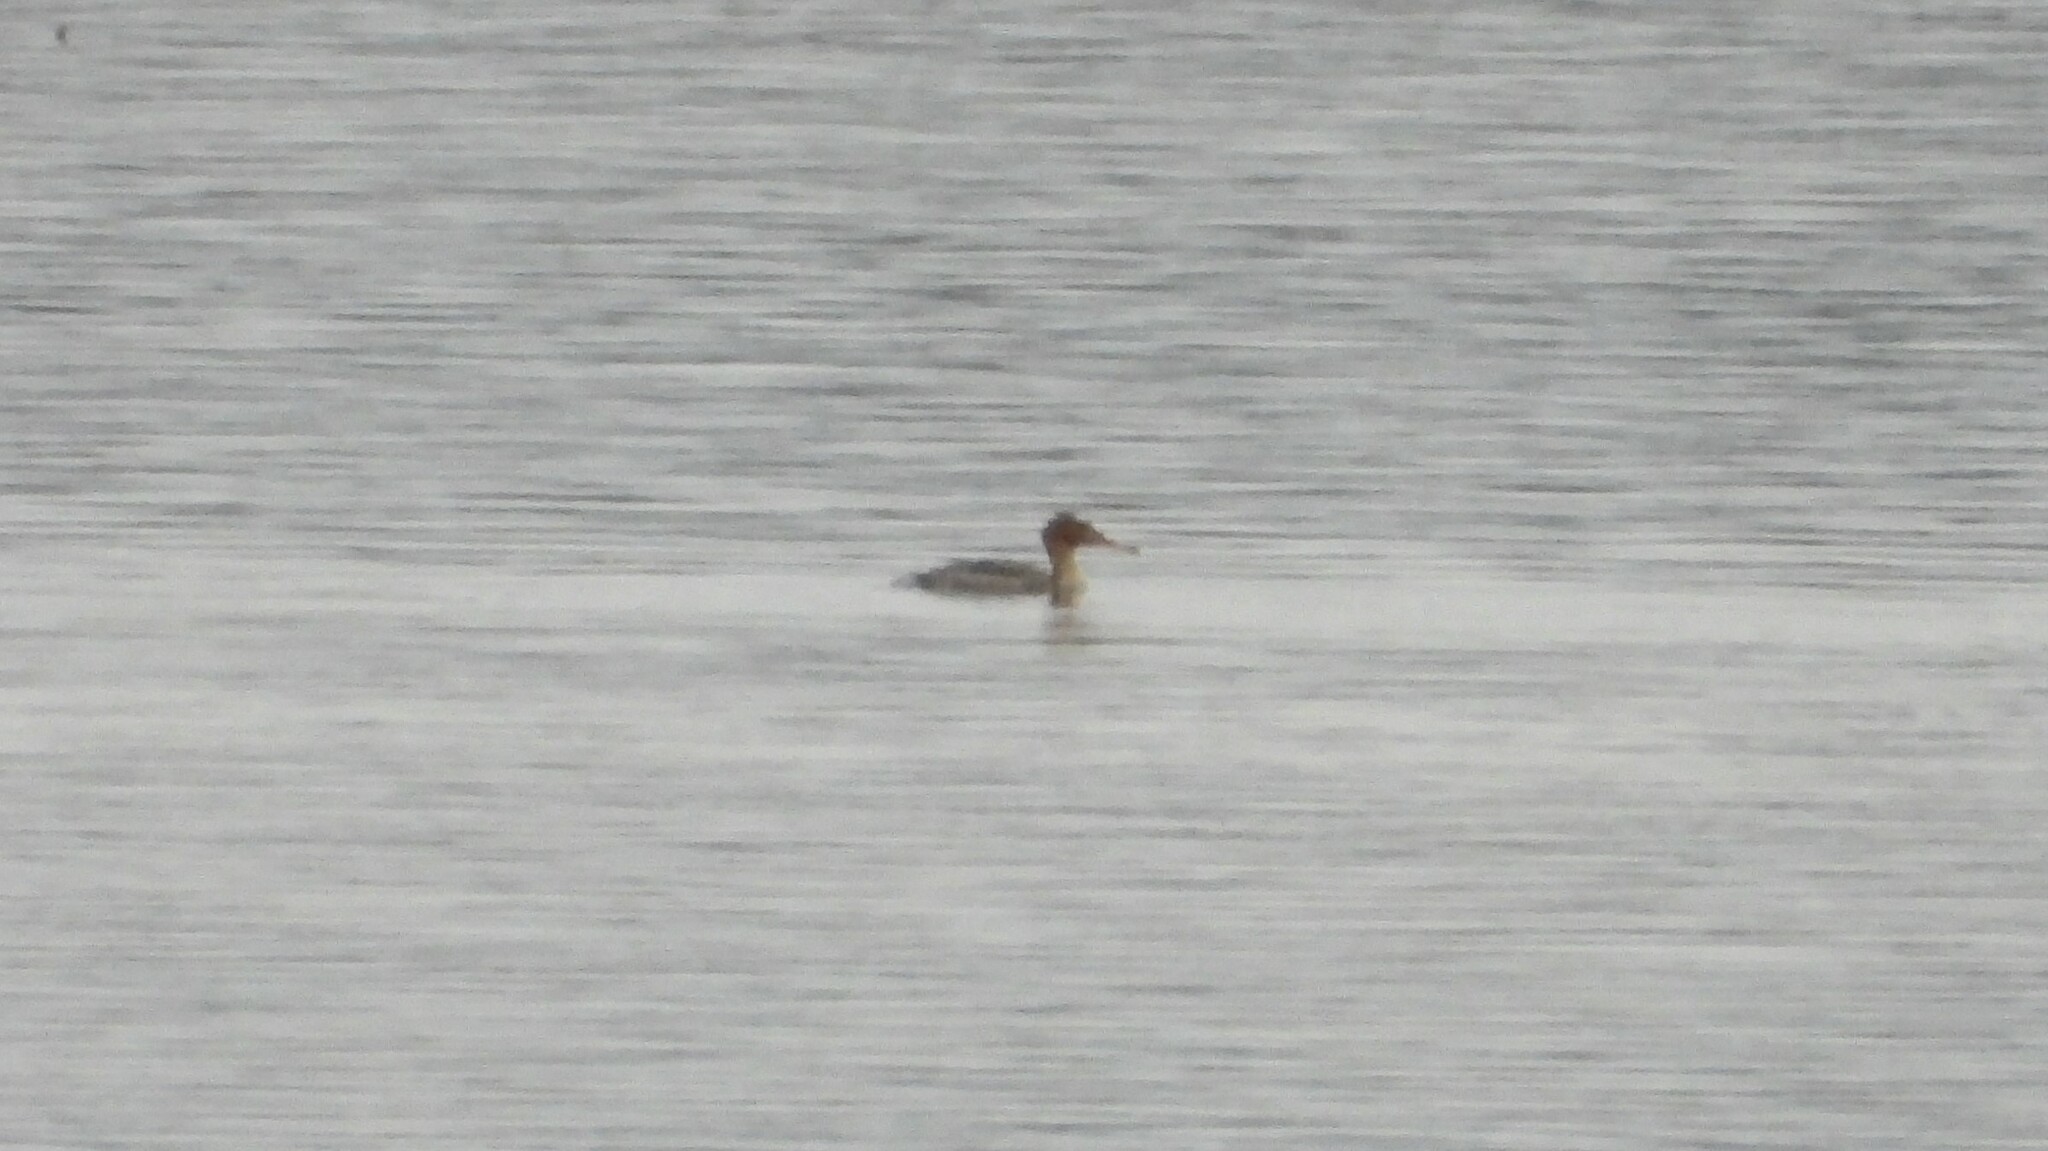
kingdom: Animalia
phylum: Chordata
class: Aves
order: Anseriformes
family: Anatidae
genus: Mergus
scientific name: Mergus serrator
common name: Red-breasted merganser
